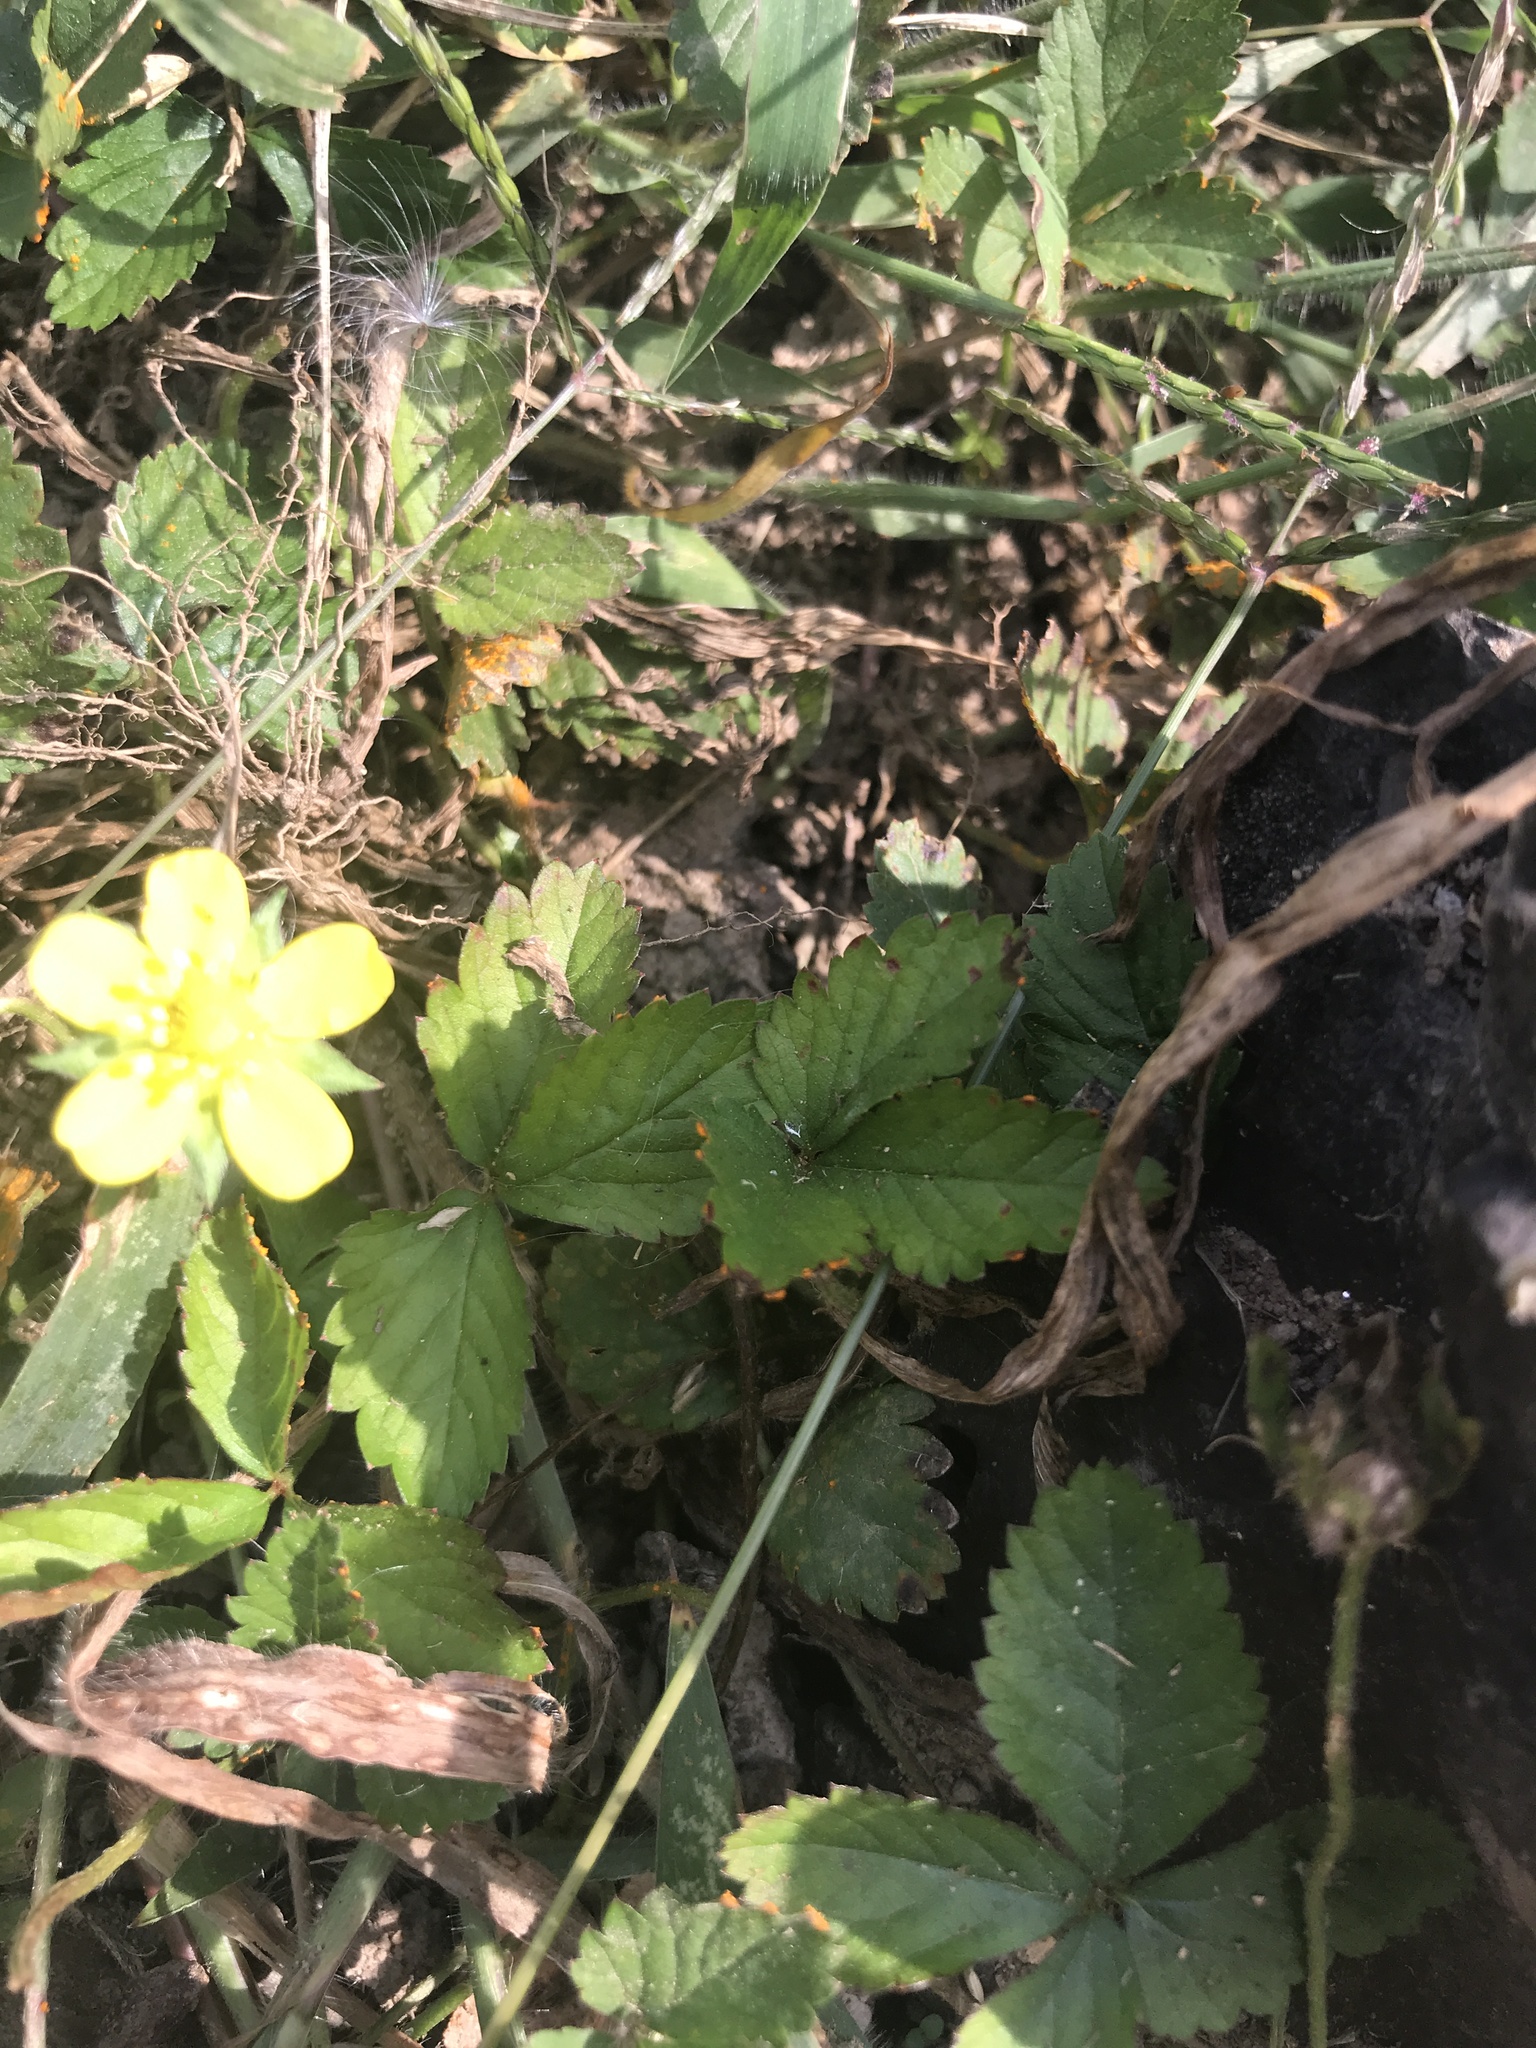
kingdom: Plantae
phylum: Tracheophyta
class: Magnoliopsida
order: Rosales
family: Rosaceae
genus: Potentilla
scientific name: Potentilla indica
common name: Yellow-flowered strawberry
